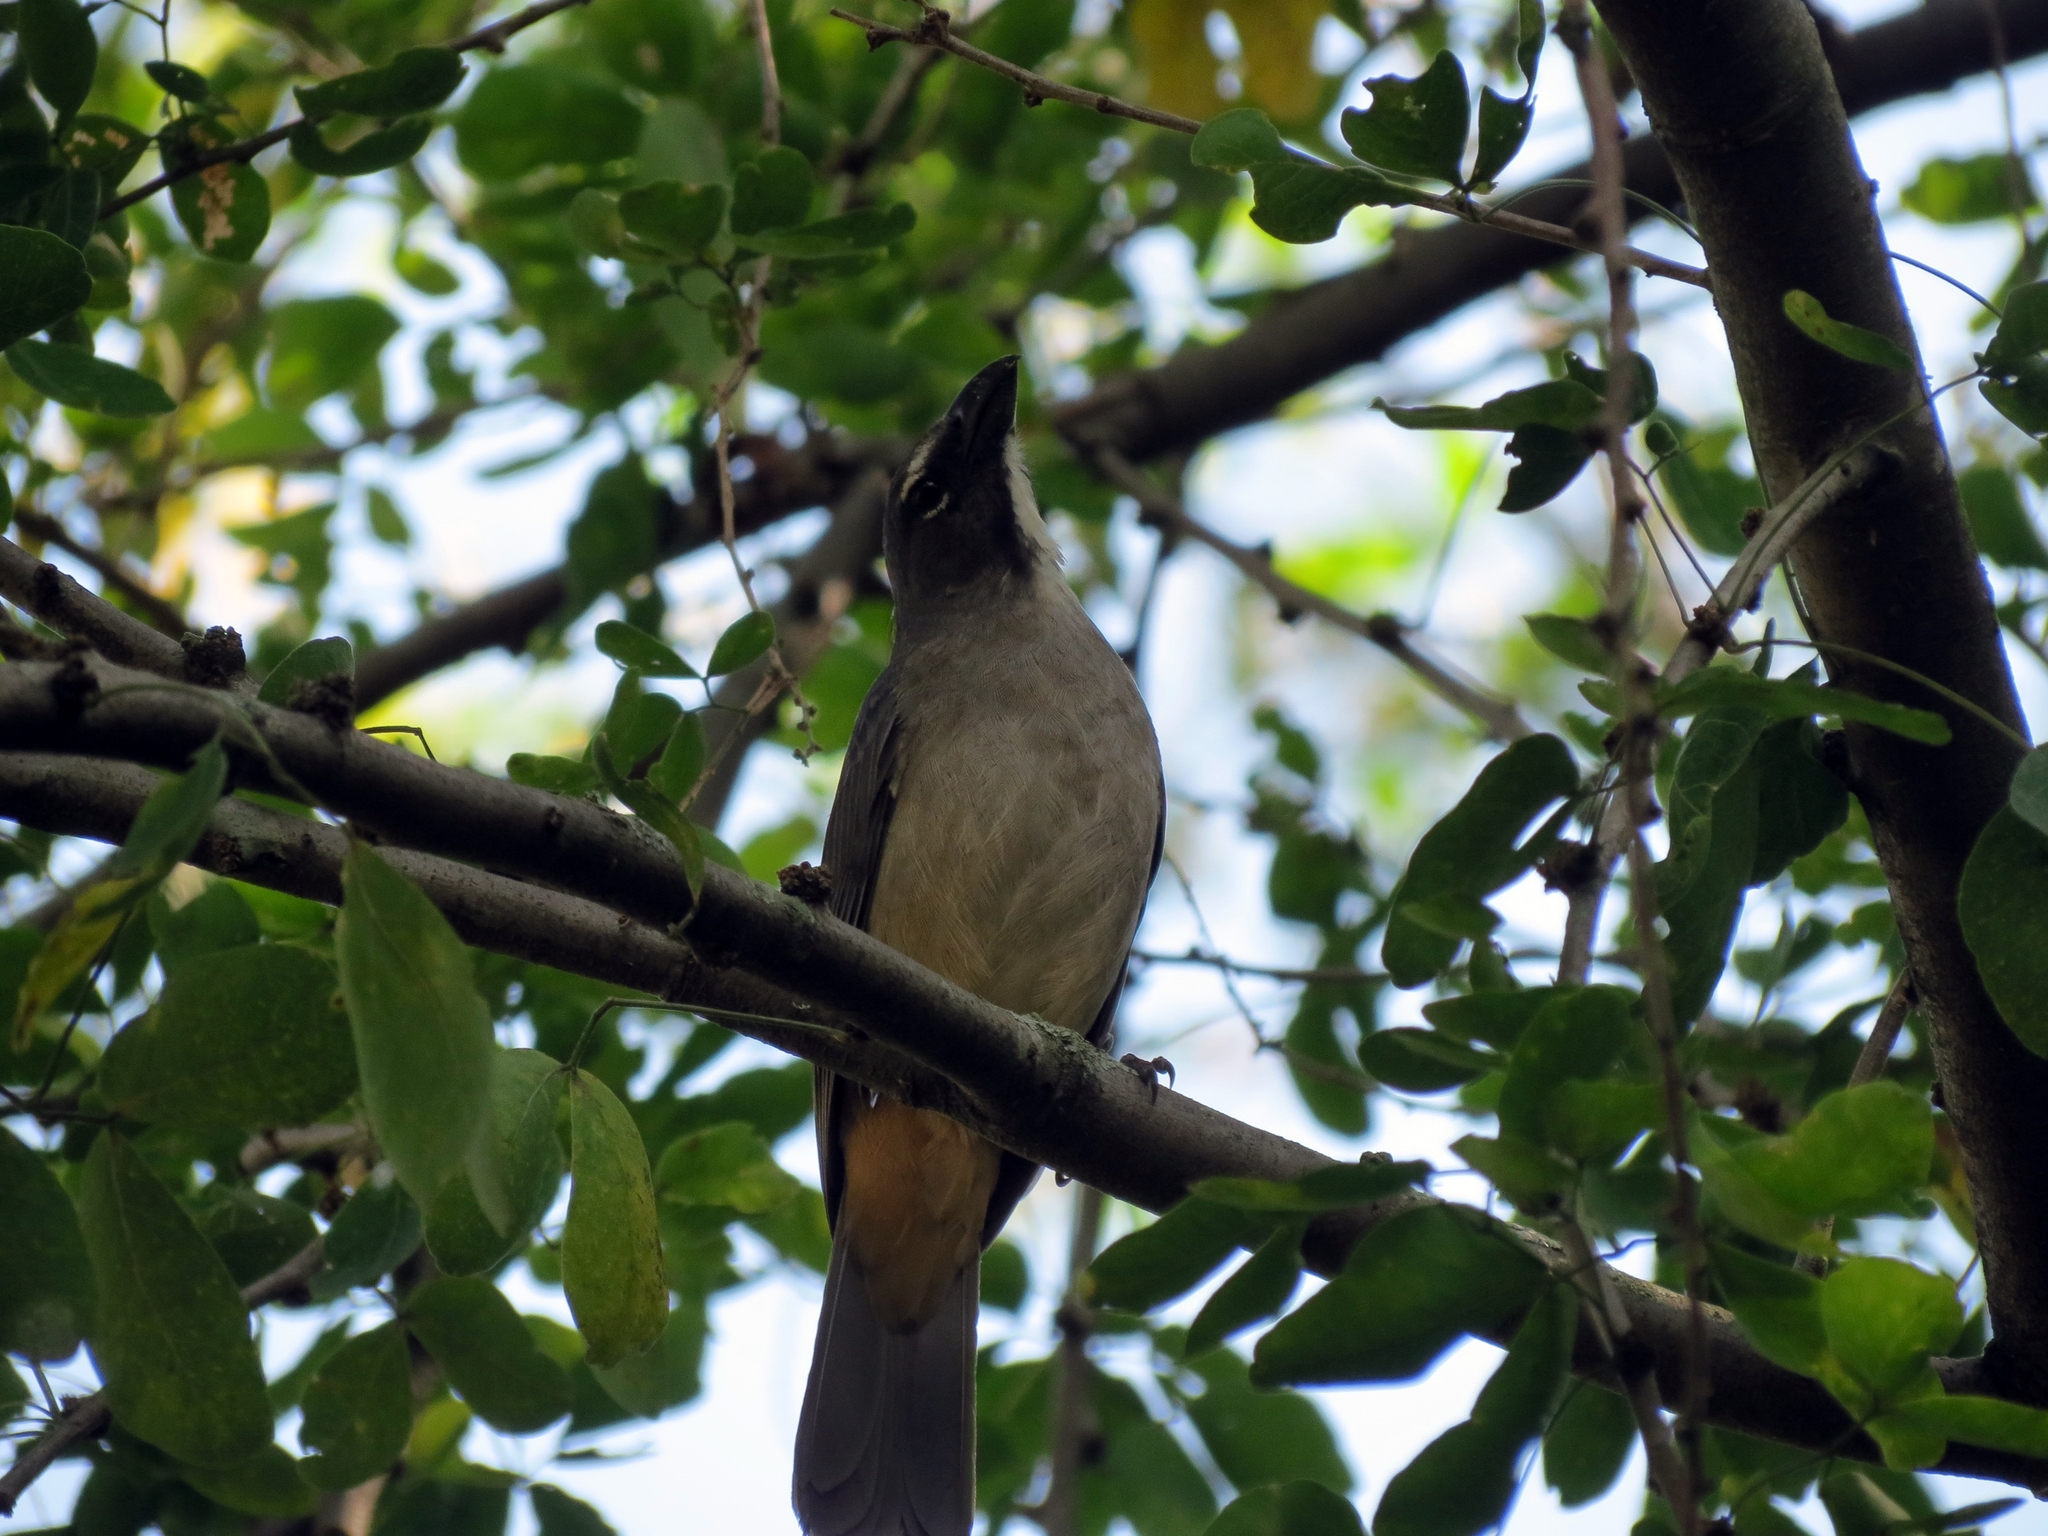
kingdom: Animalia
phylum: Chordata
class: Aves
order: Passeriformes
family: Thraupidae
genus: Saltator
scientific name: Saltator olivascens
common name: Caribbean grey saltator
